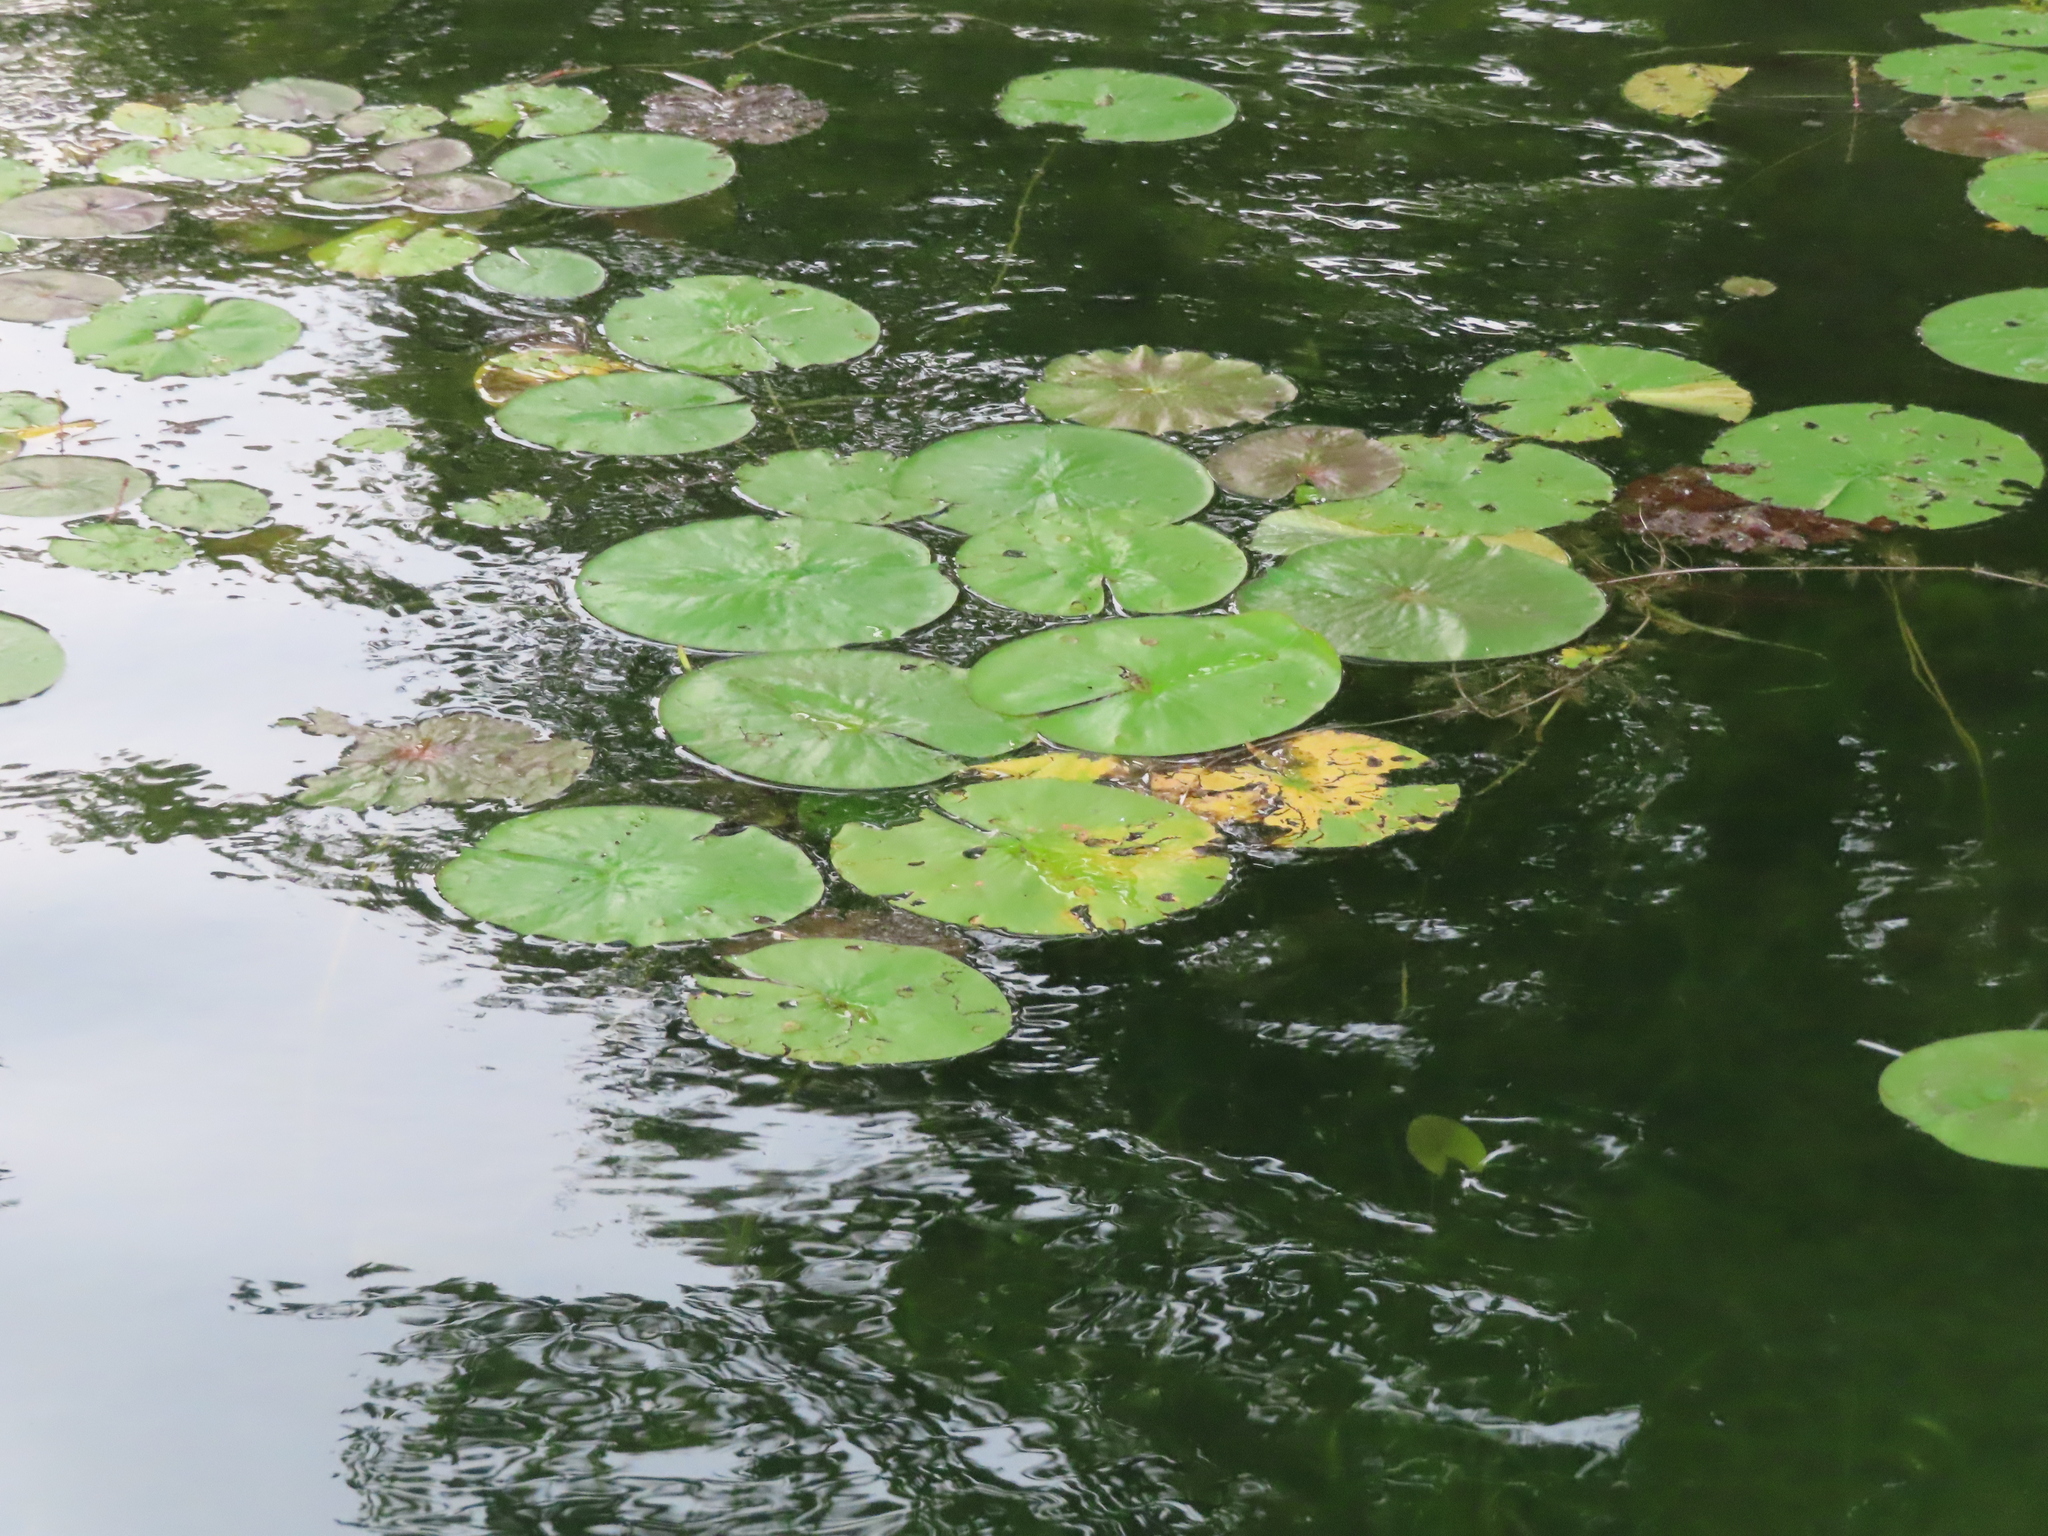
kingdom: Plantae
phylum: Tracheophyta
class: Magnoliopsida
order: Nymphaeales
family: Nymphaeaceae
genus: Nymphaea
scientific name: Nymphaea odorata
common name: Fragrant water-lily
